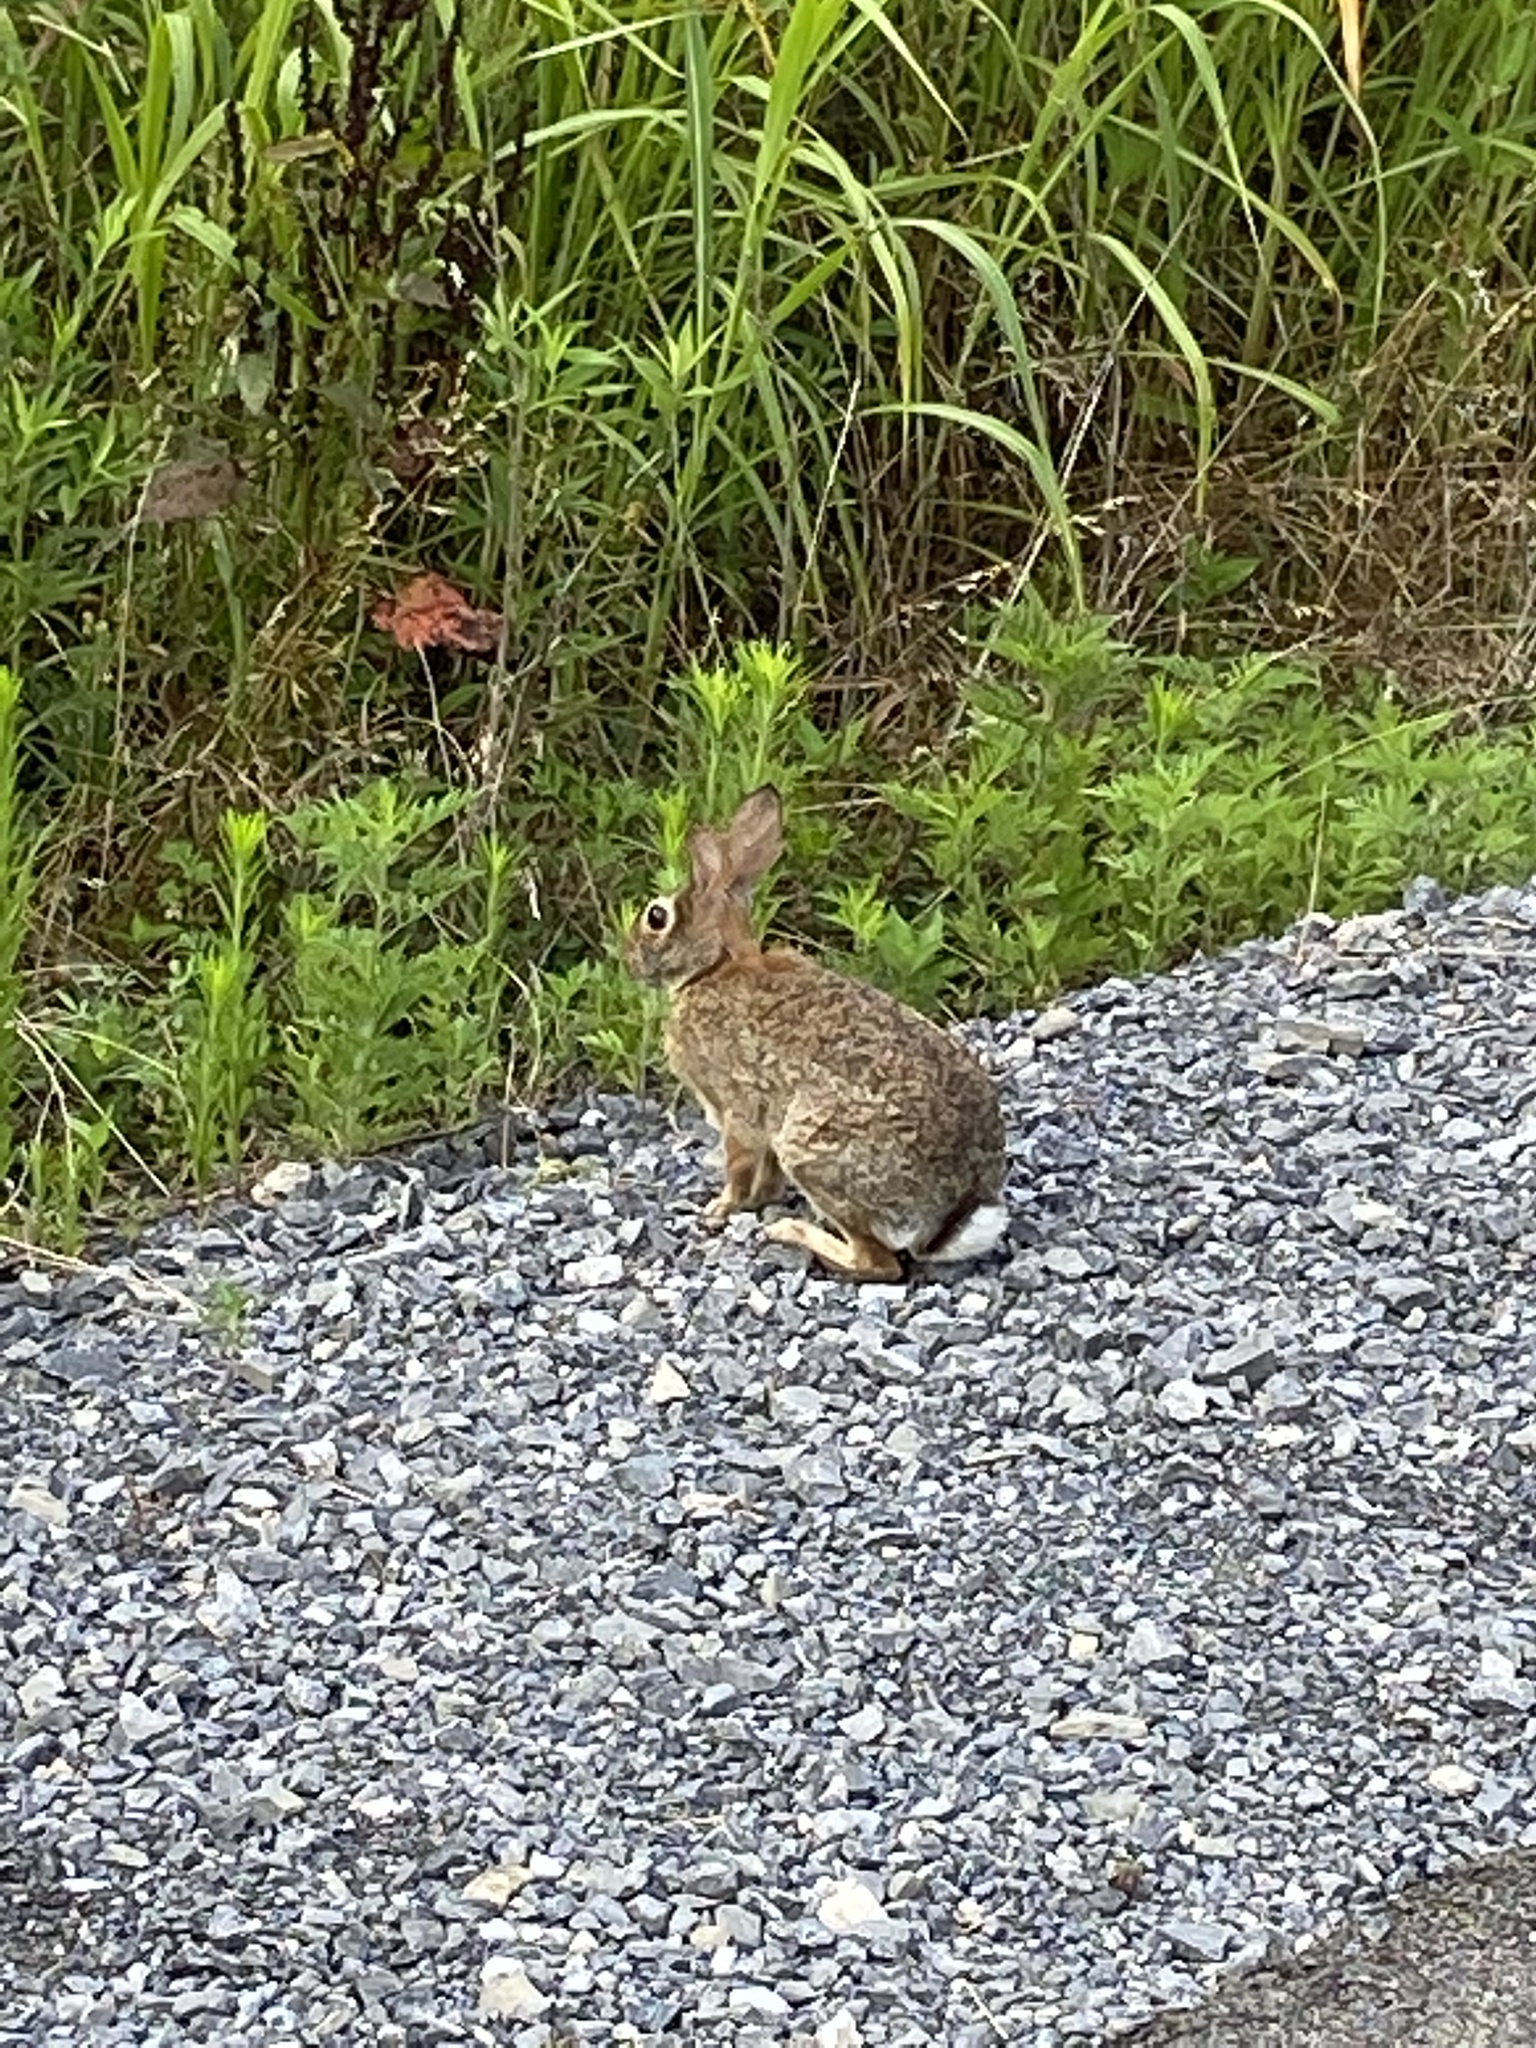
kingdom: Animalia
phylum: Chordata
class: Mammalia
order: Lagomorpha
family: Leporidae
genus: Sylvilagus
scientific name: Sylvilagus floridanus
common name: Eastern cottontail
